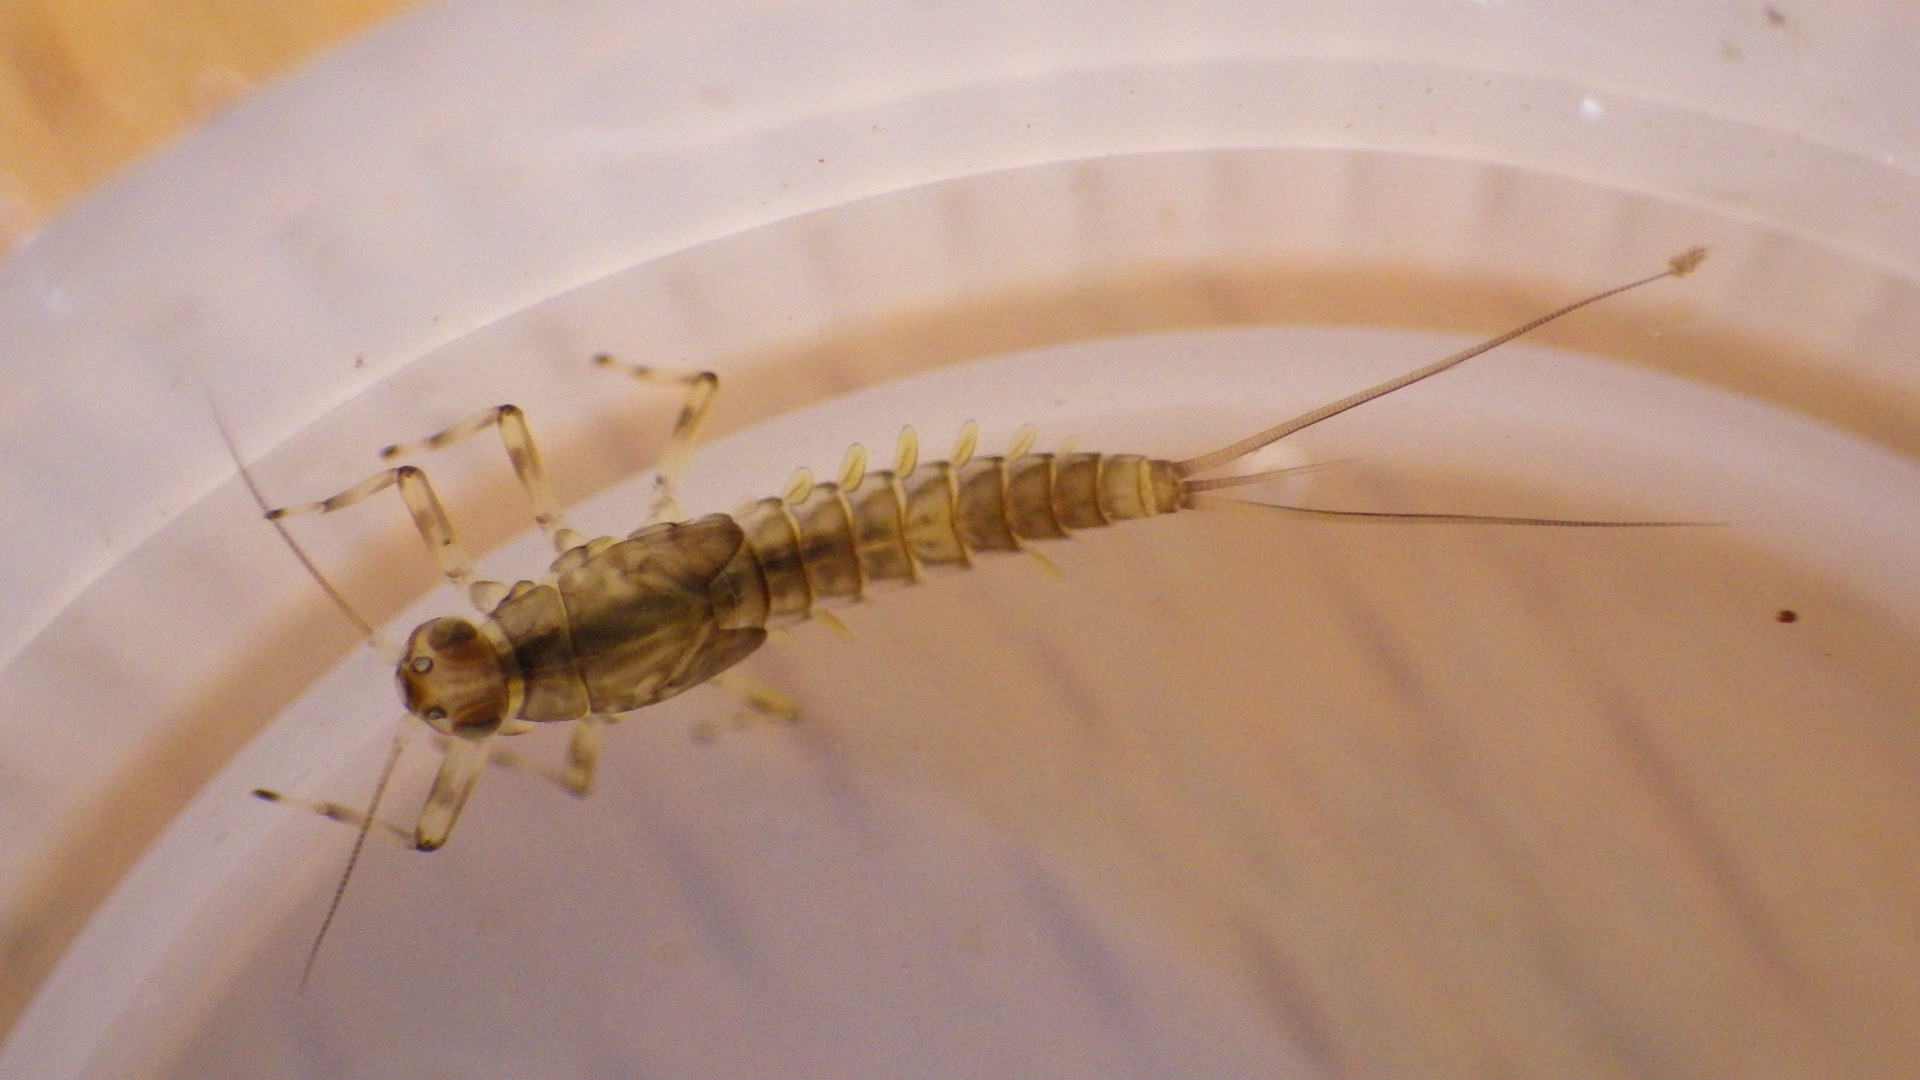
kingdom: Animalia
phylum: Arthropoda
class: Insecta
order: Ephemeroptera
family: Baetidae
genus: Baetis
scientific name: Baetis tricaudatus
